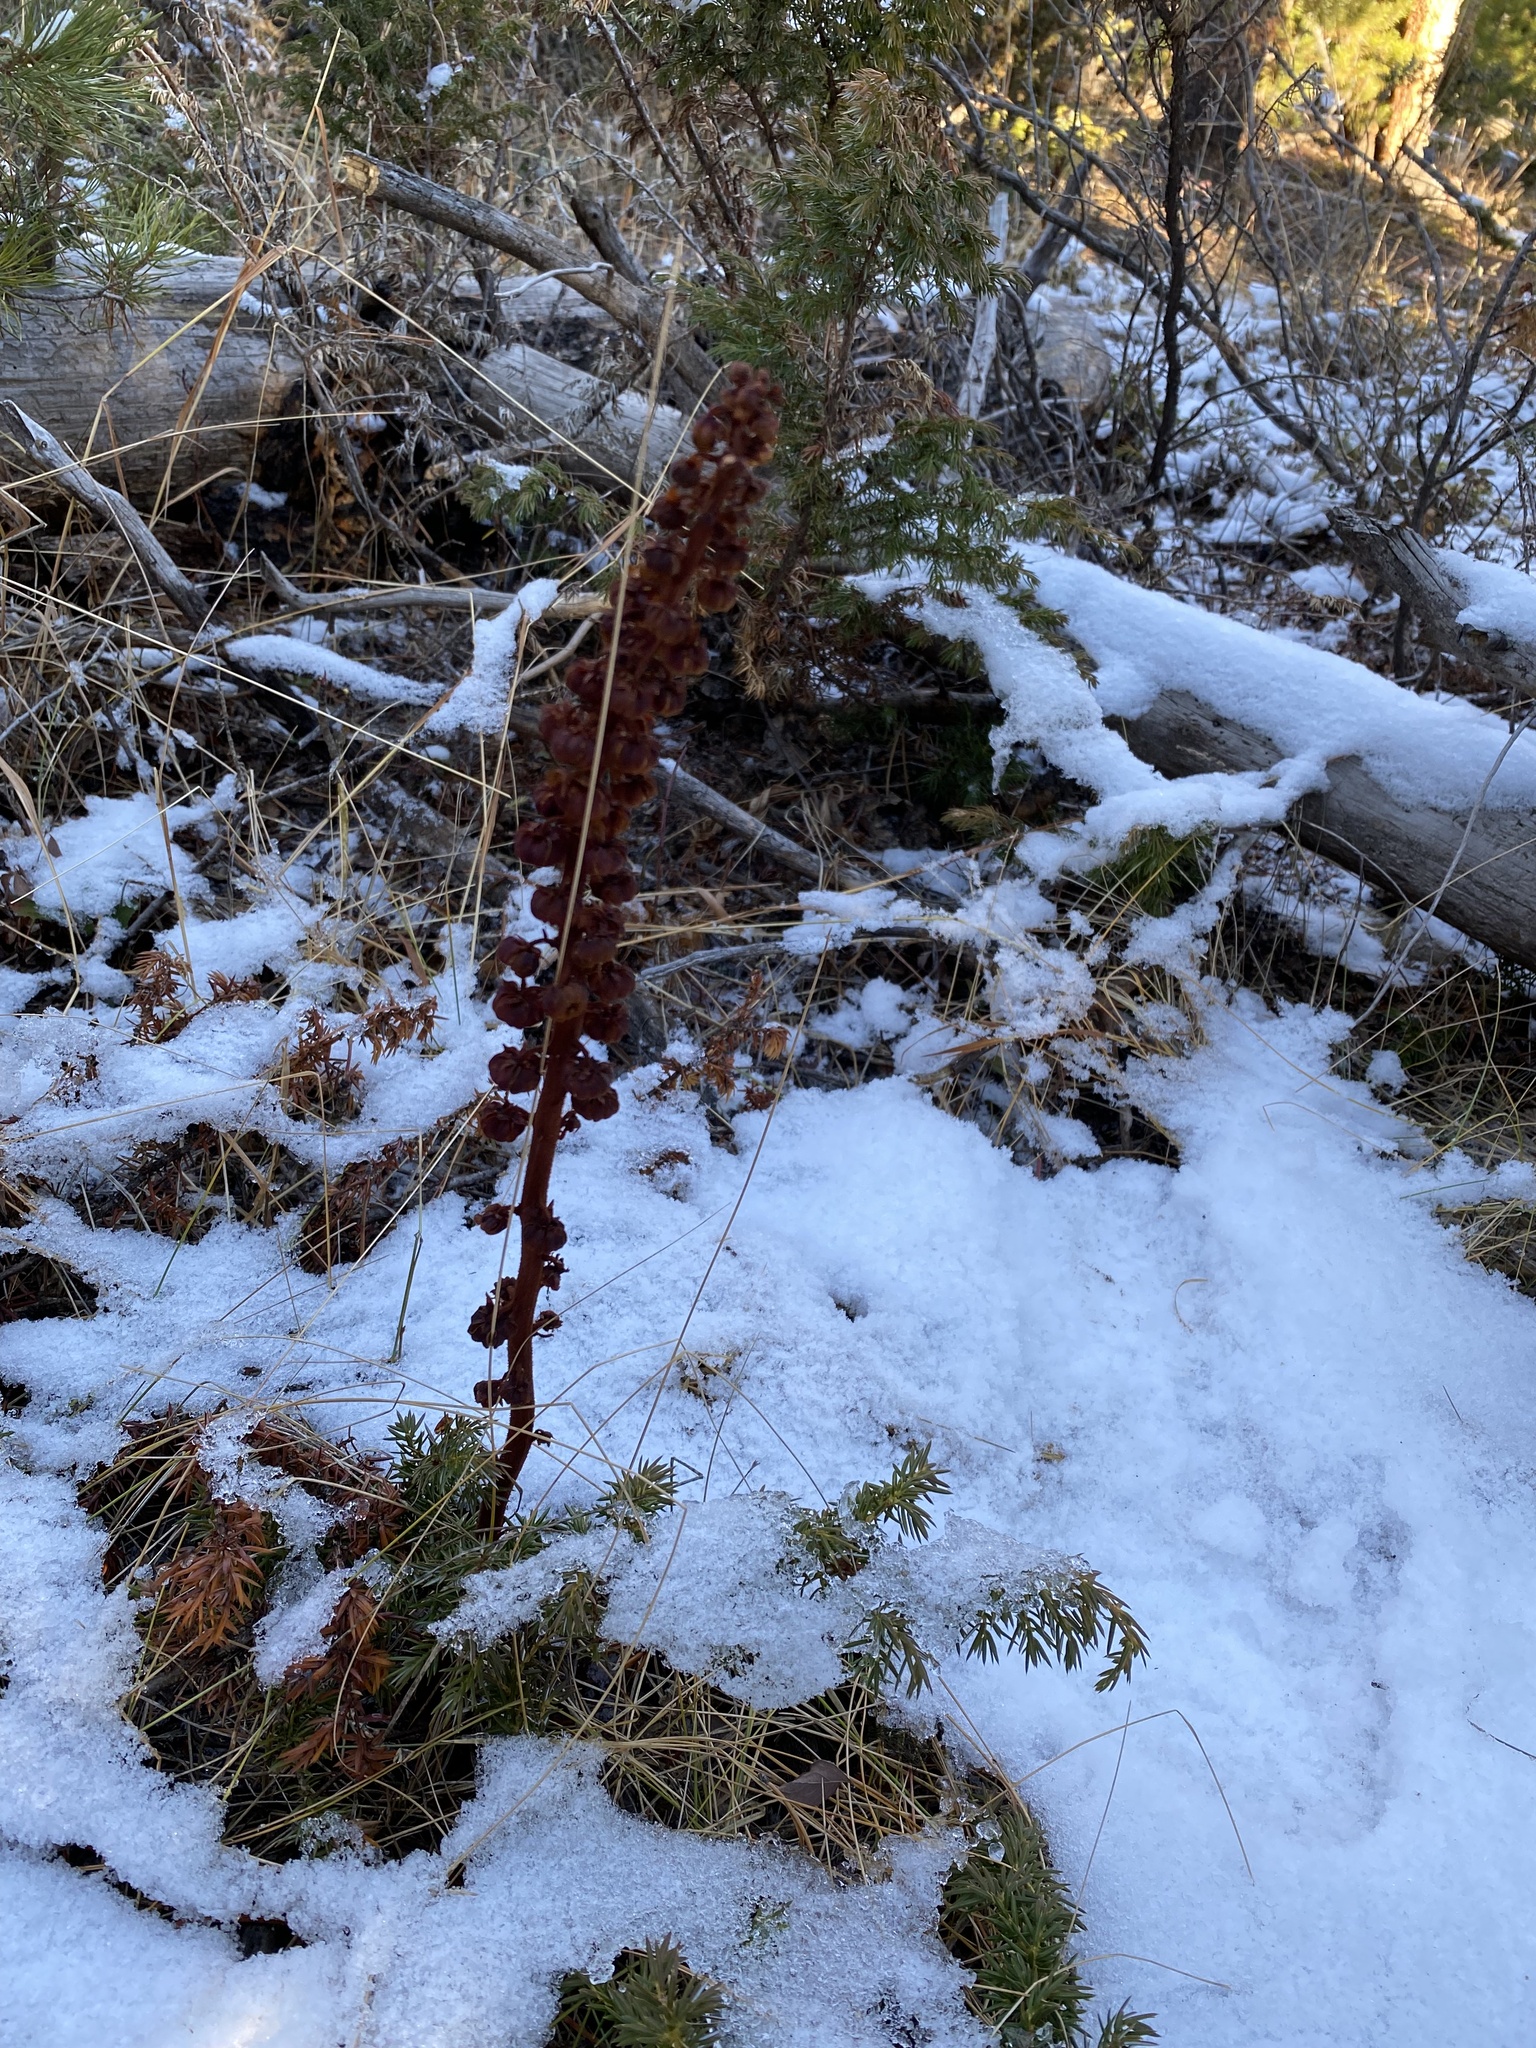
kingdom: Plantae
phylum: Tracheophyta
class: Magnoliopsida
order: Ericales
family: Ericaceae
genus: Pterospora
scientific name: Pterospora andromedea
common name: Giant bird's-nest
